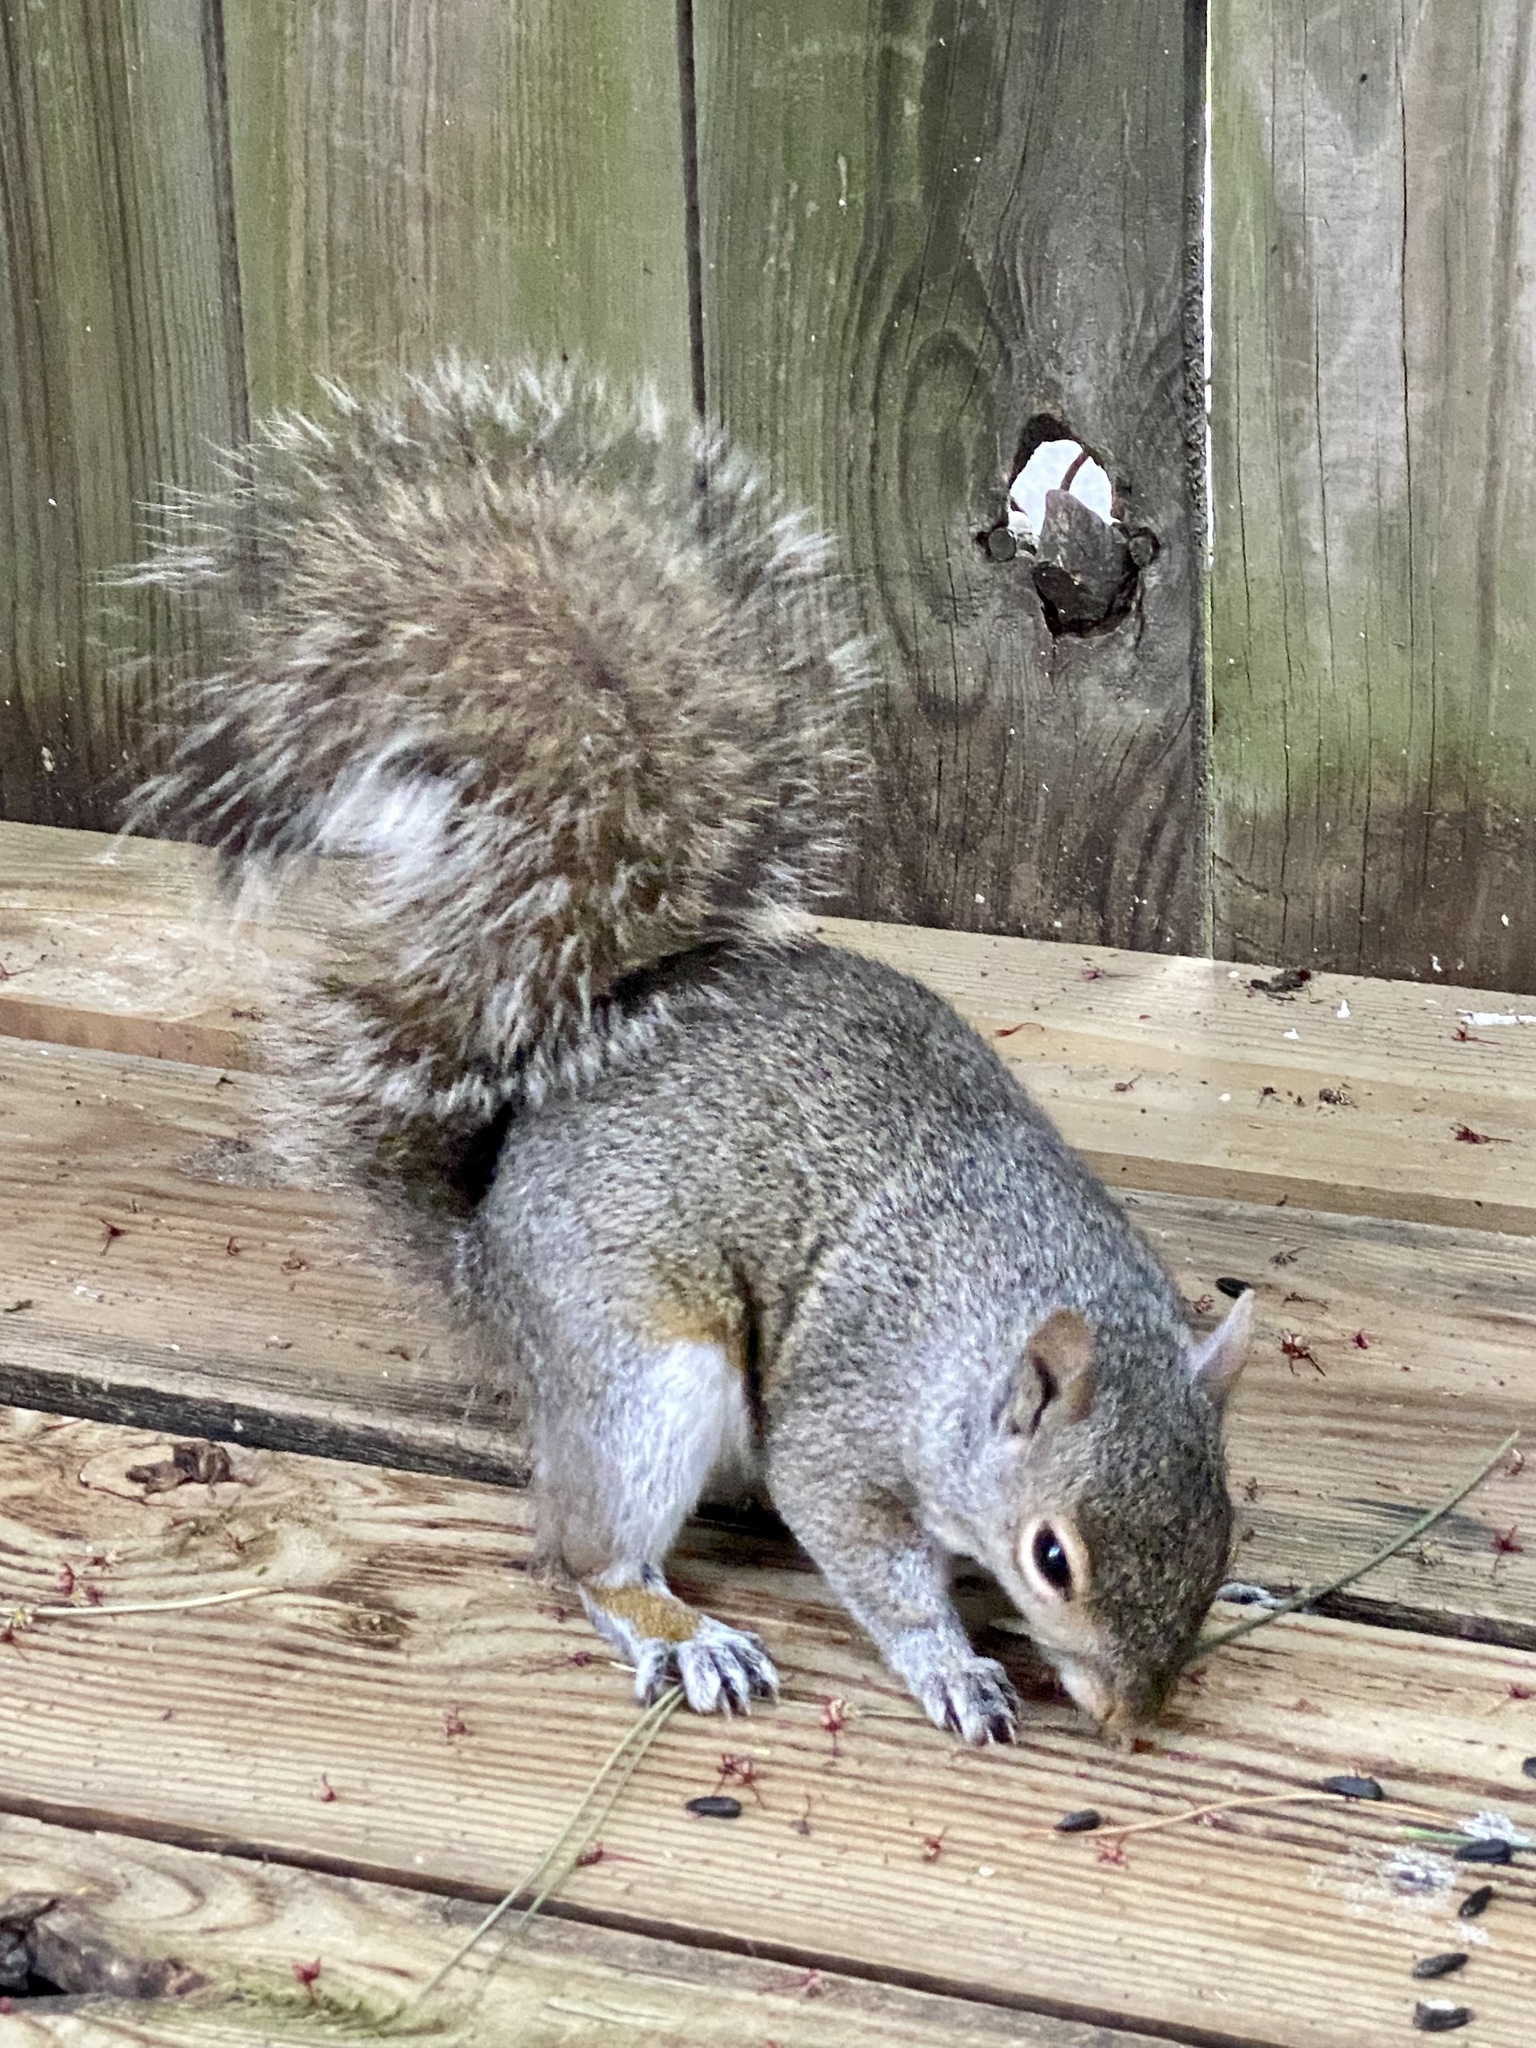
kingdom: Animalia
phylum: Chordata
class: Mammalia
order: Rodentia
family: Sciuridae
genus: Sciurus
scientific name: Sciurus carolinensis
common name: Eastern gray squirrel
